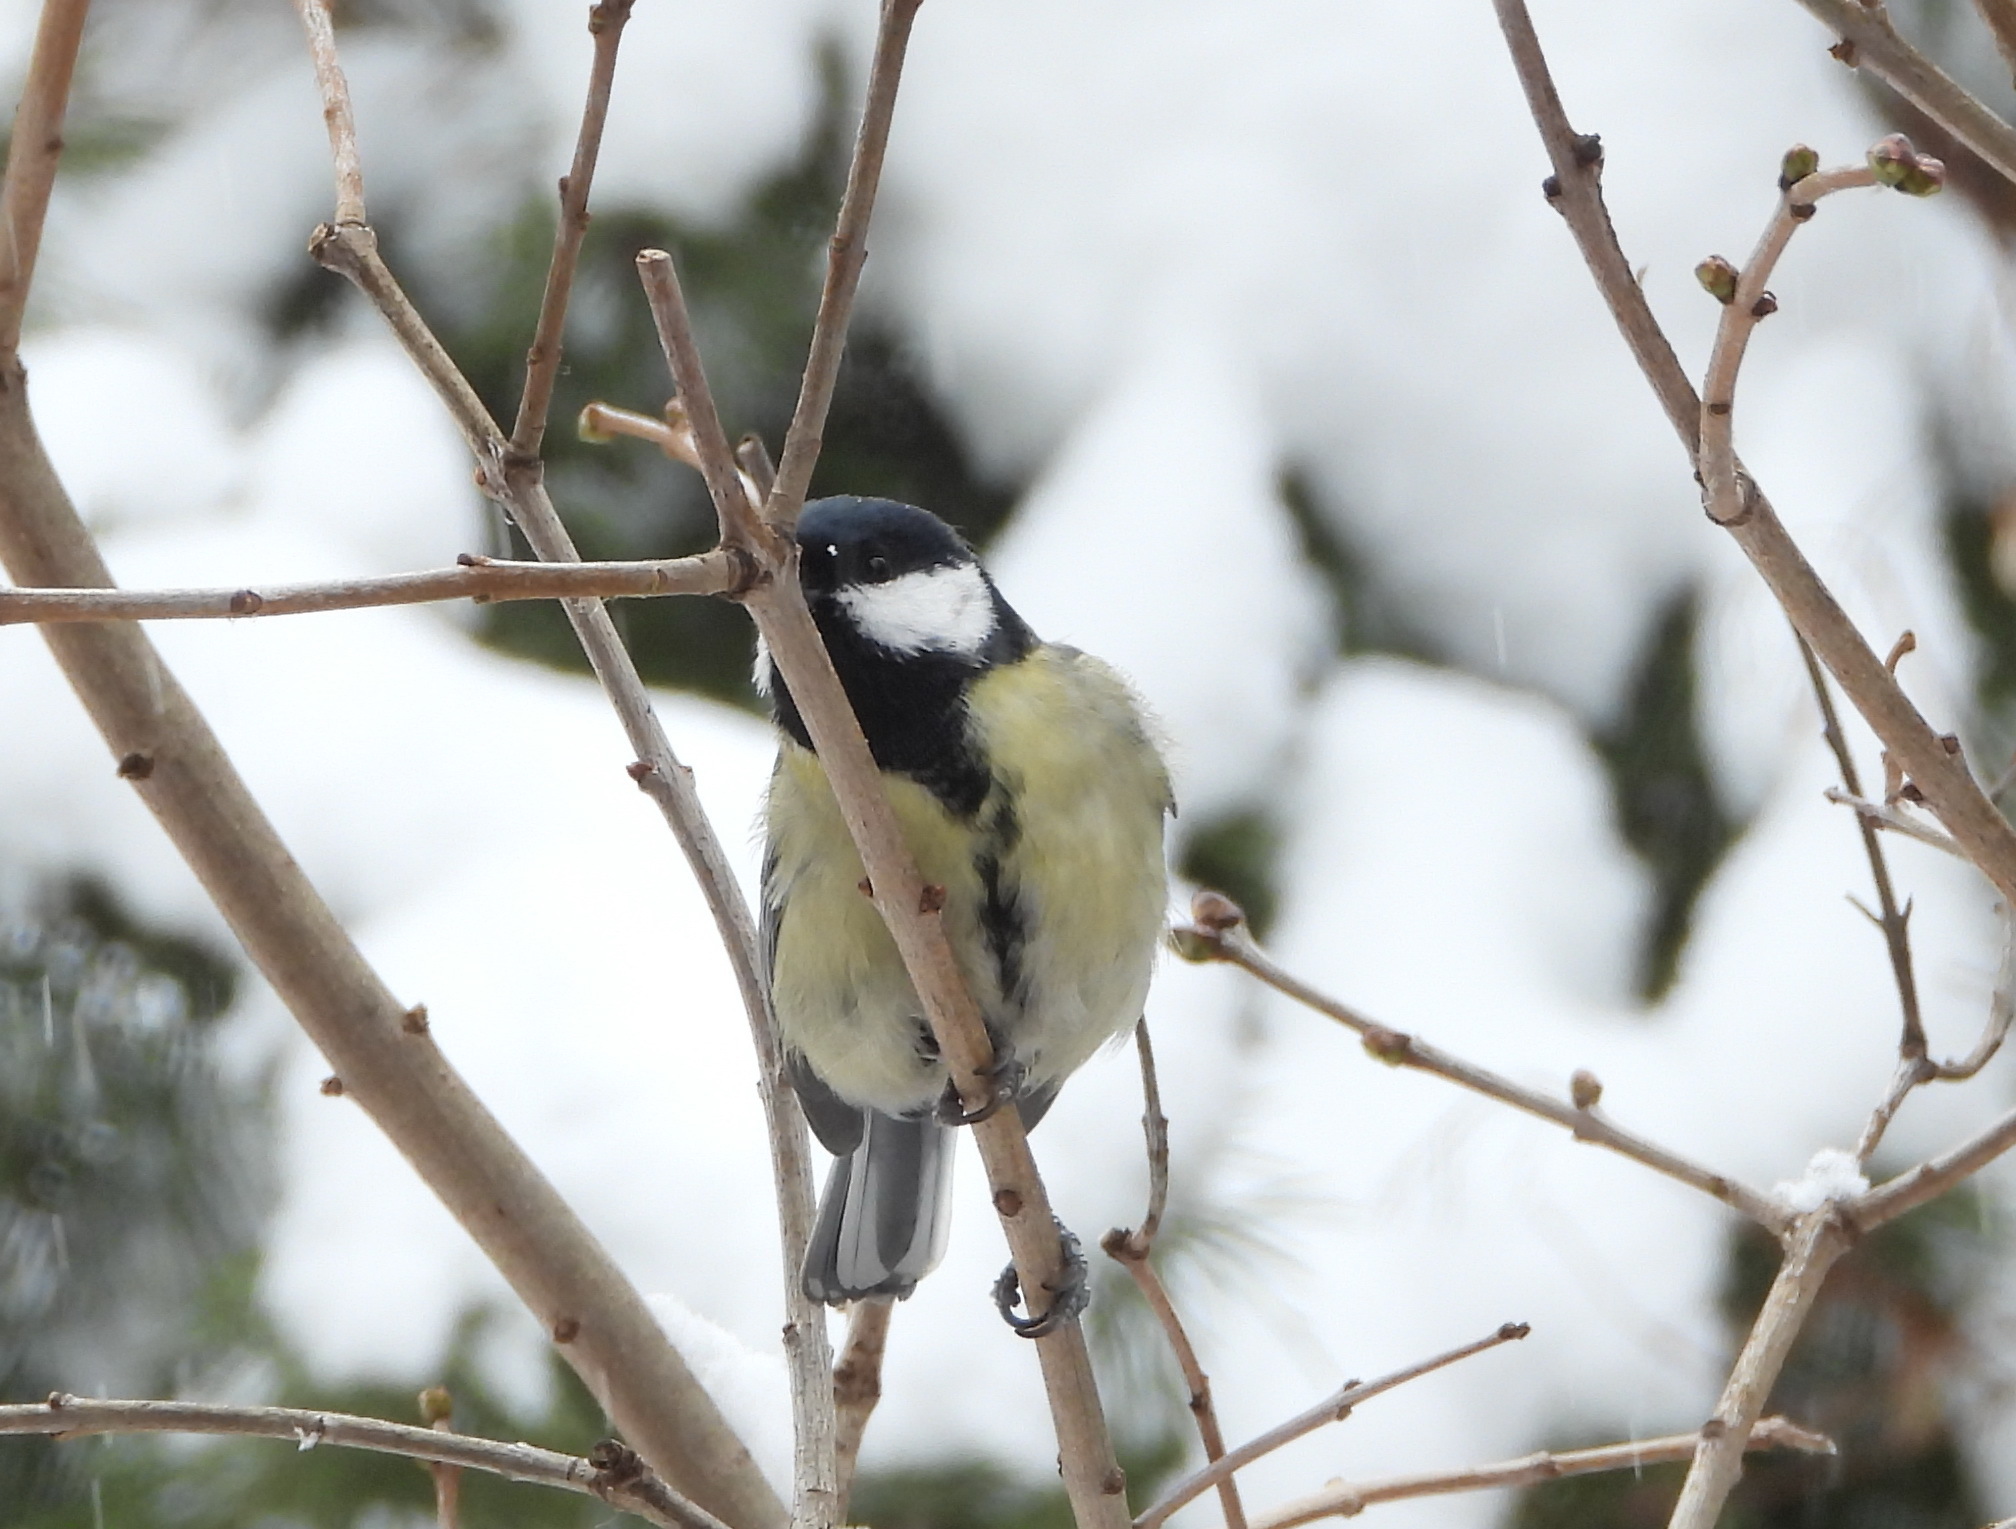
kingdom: Animalia
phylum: Chordata
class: Aves
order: Passeriformes
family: Paridae
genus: Parus
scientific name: Parus major
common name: Great tit
